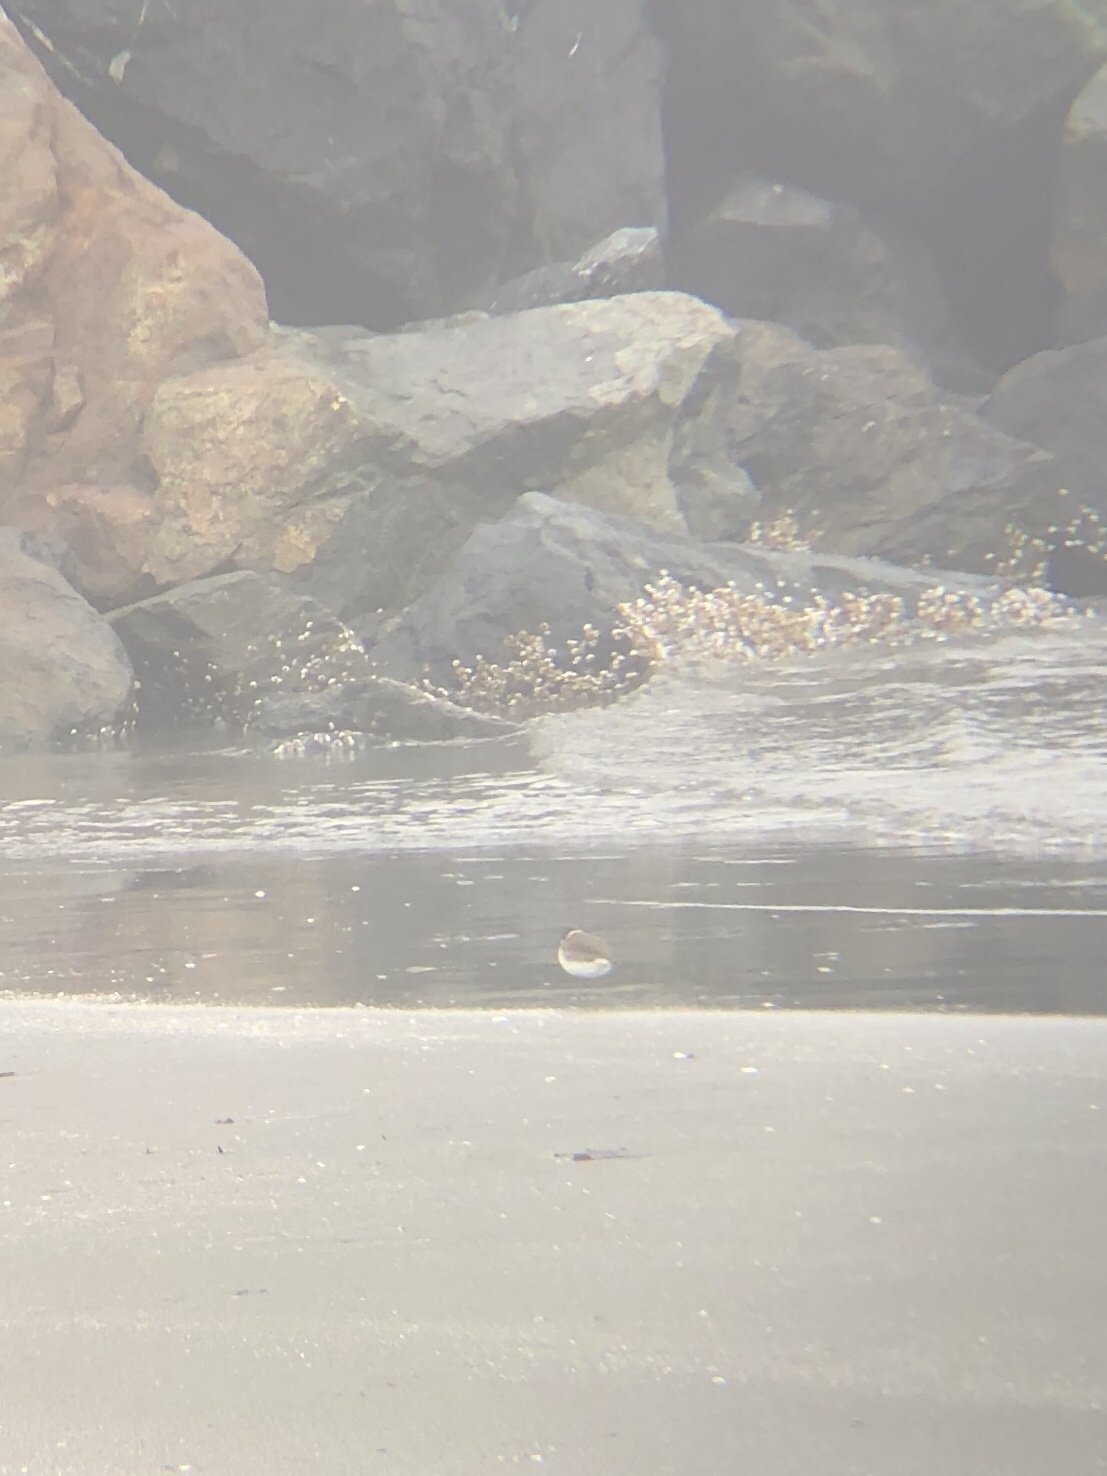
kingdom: Animalia
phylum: Chordata
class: Aves
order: Charadriiformes
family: Charadriidae
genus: Charadrius
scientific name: Charadrius semipalmatus
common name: Semipalmated plover
